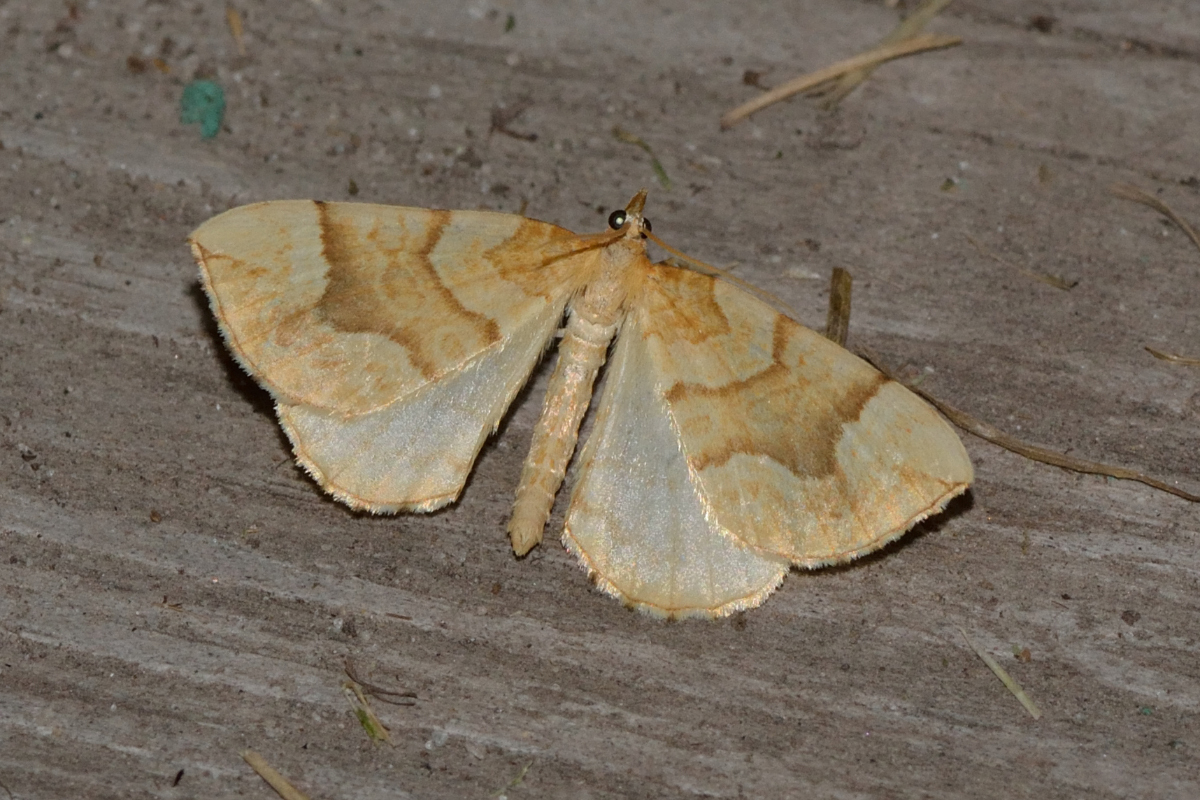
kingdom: Animalia
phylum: Arthropoda
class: Insecta
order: Lepidoptera
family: Geometridae
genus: Eulithis
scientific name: Eulithis mellinata
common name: Spinach
